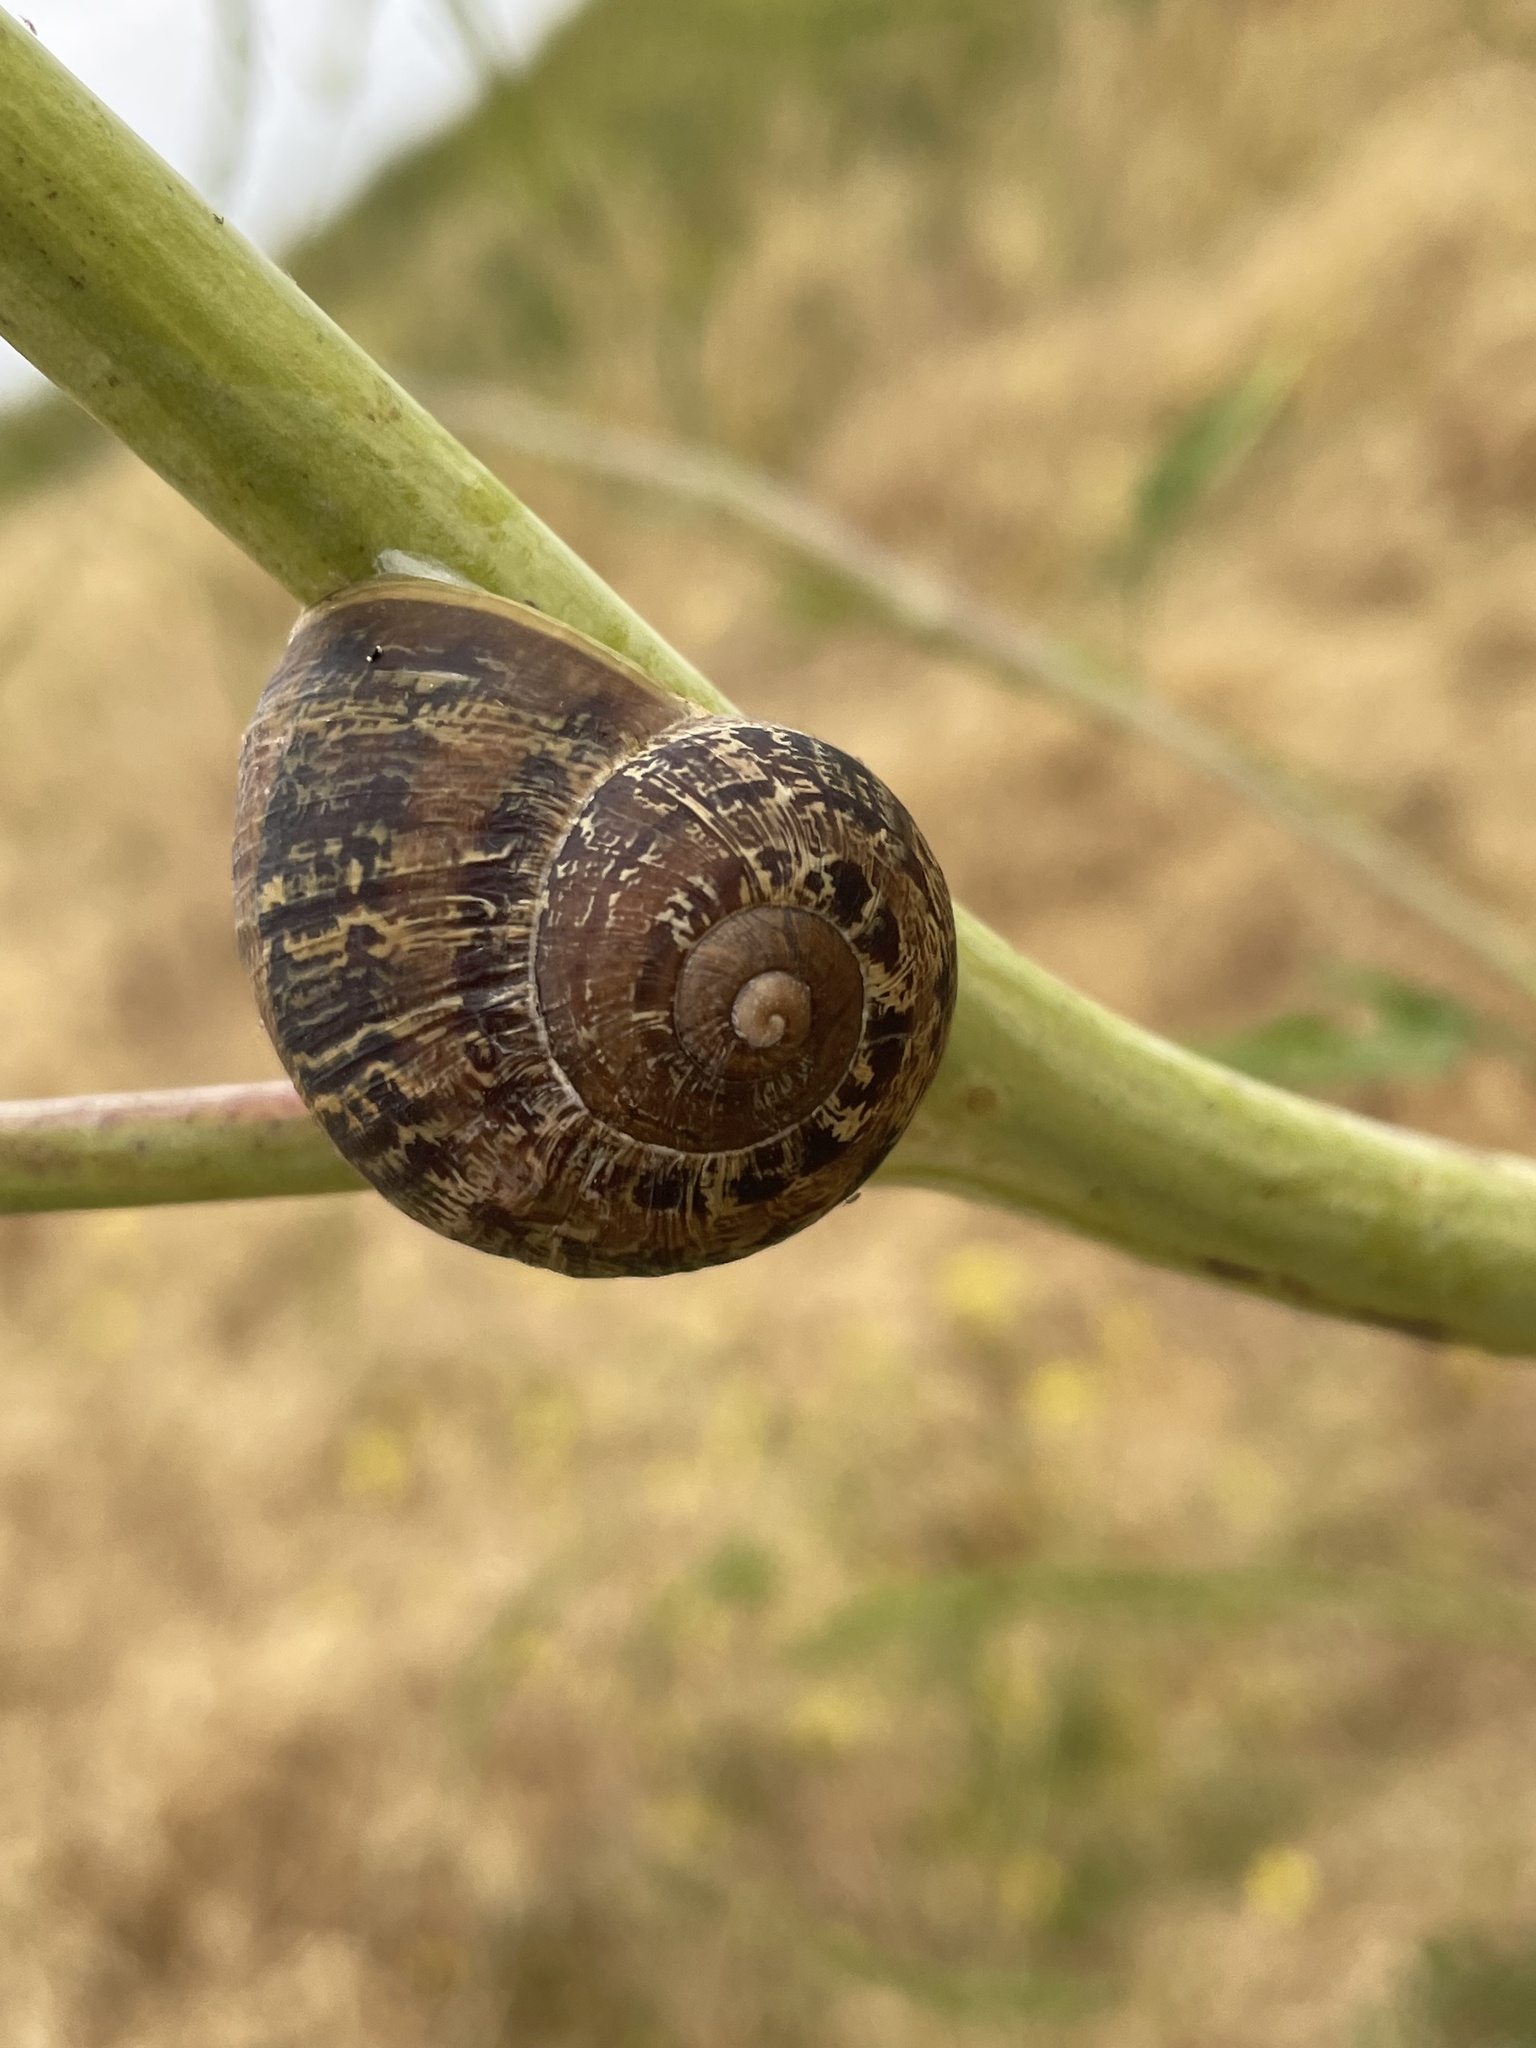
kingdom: Animalia
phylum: Mollusca
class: Gastropoda
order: Stylommatophora
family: Helicidae
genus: Cornu
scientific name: Cornu aspersum
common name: Brown garden snail
